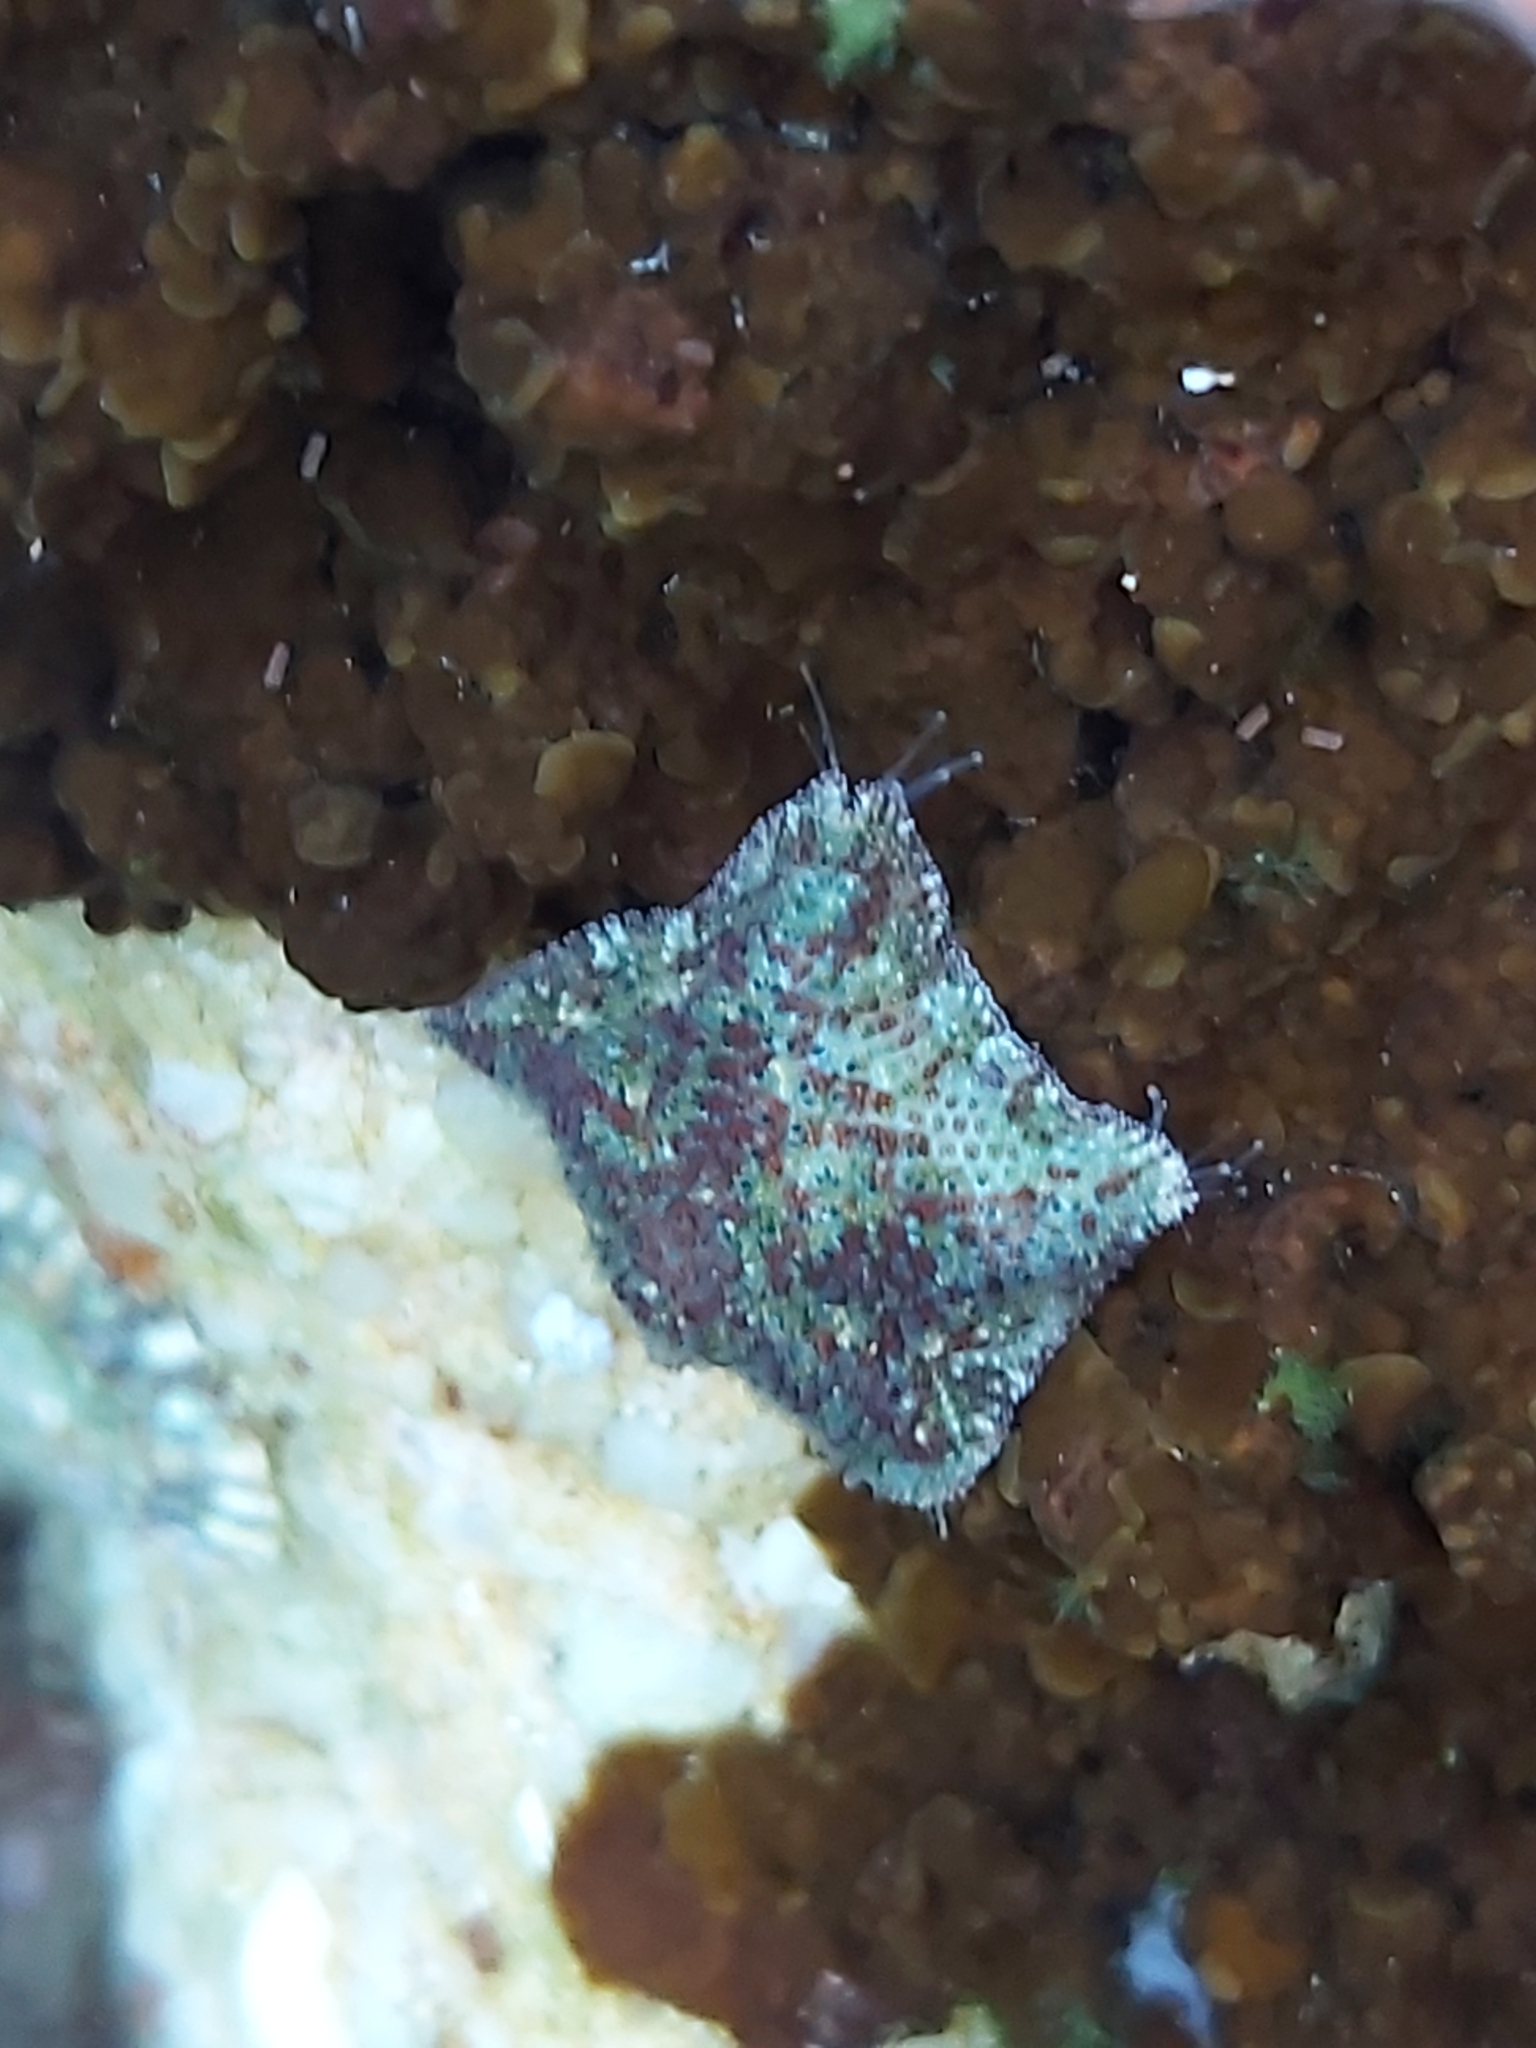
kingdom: Animalia
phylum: Echinodermata
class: Asteroidea
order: Valvatida
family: Asterinidae
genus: Parvulastra
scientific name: Parvulastra exigua
